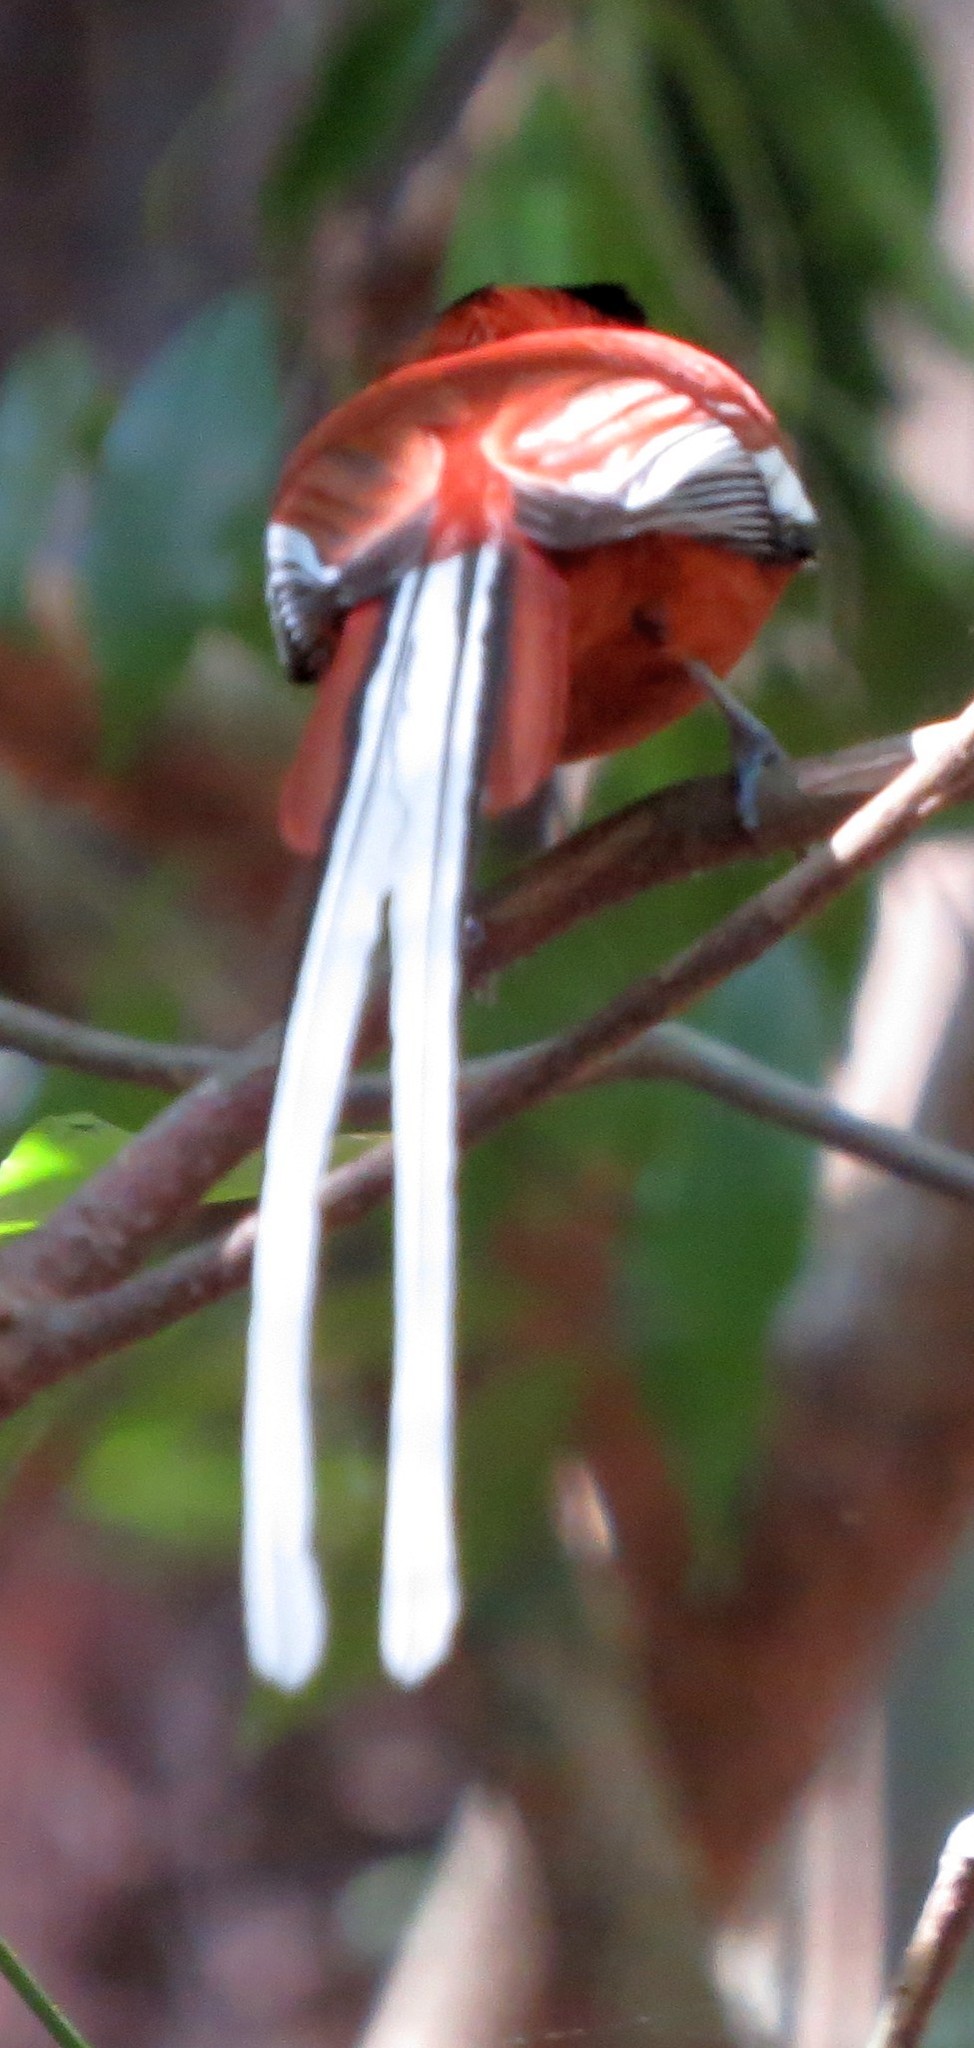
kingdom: Animalia
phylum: Chordata
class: Aves
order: Passeriformes
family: Monarchidae
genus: Terpsiphone
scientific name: Terpsiphone mutata
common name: Malagasy paradise flycatcher
